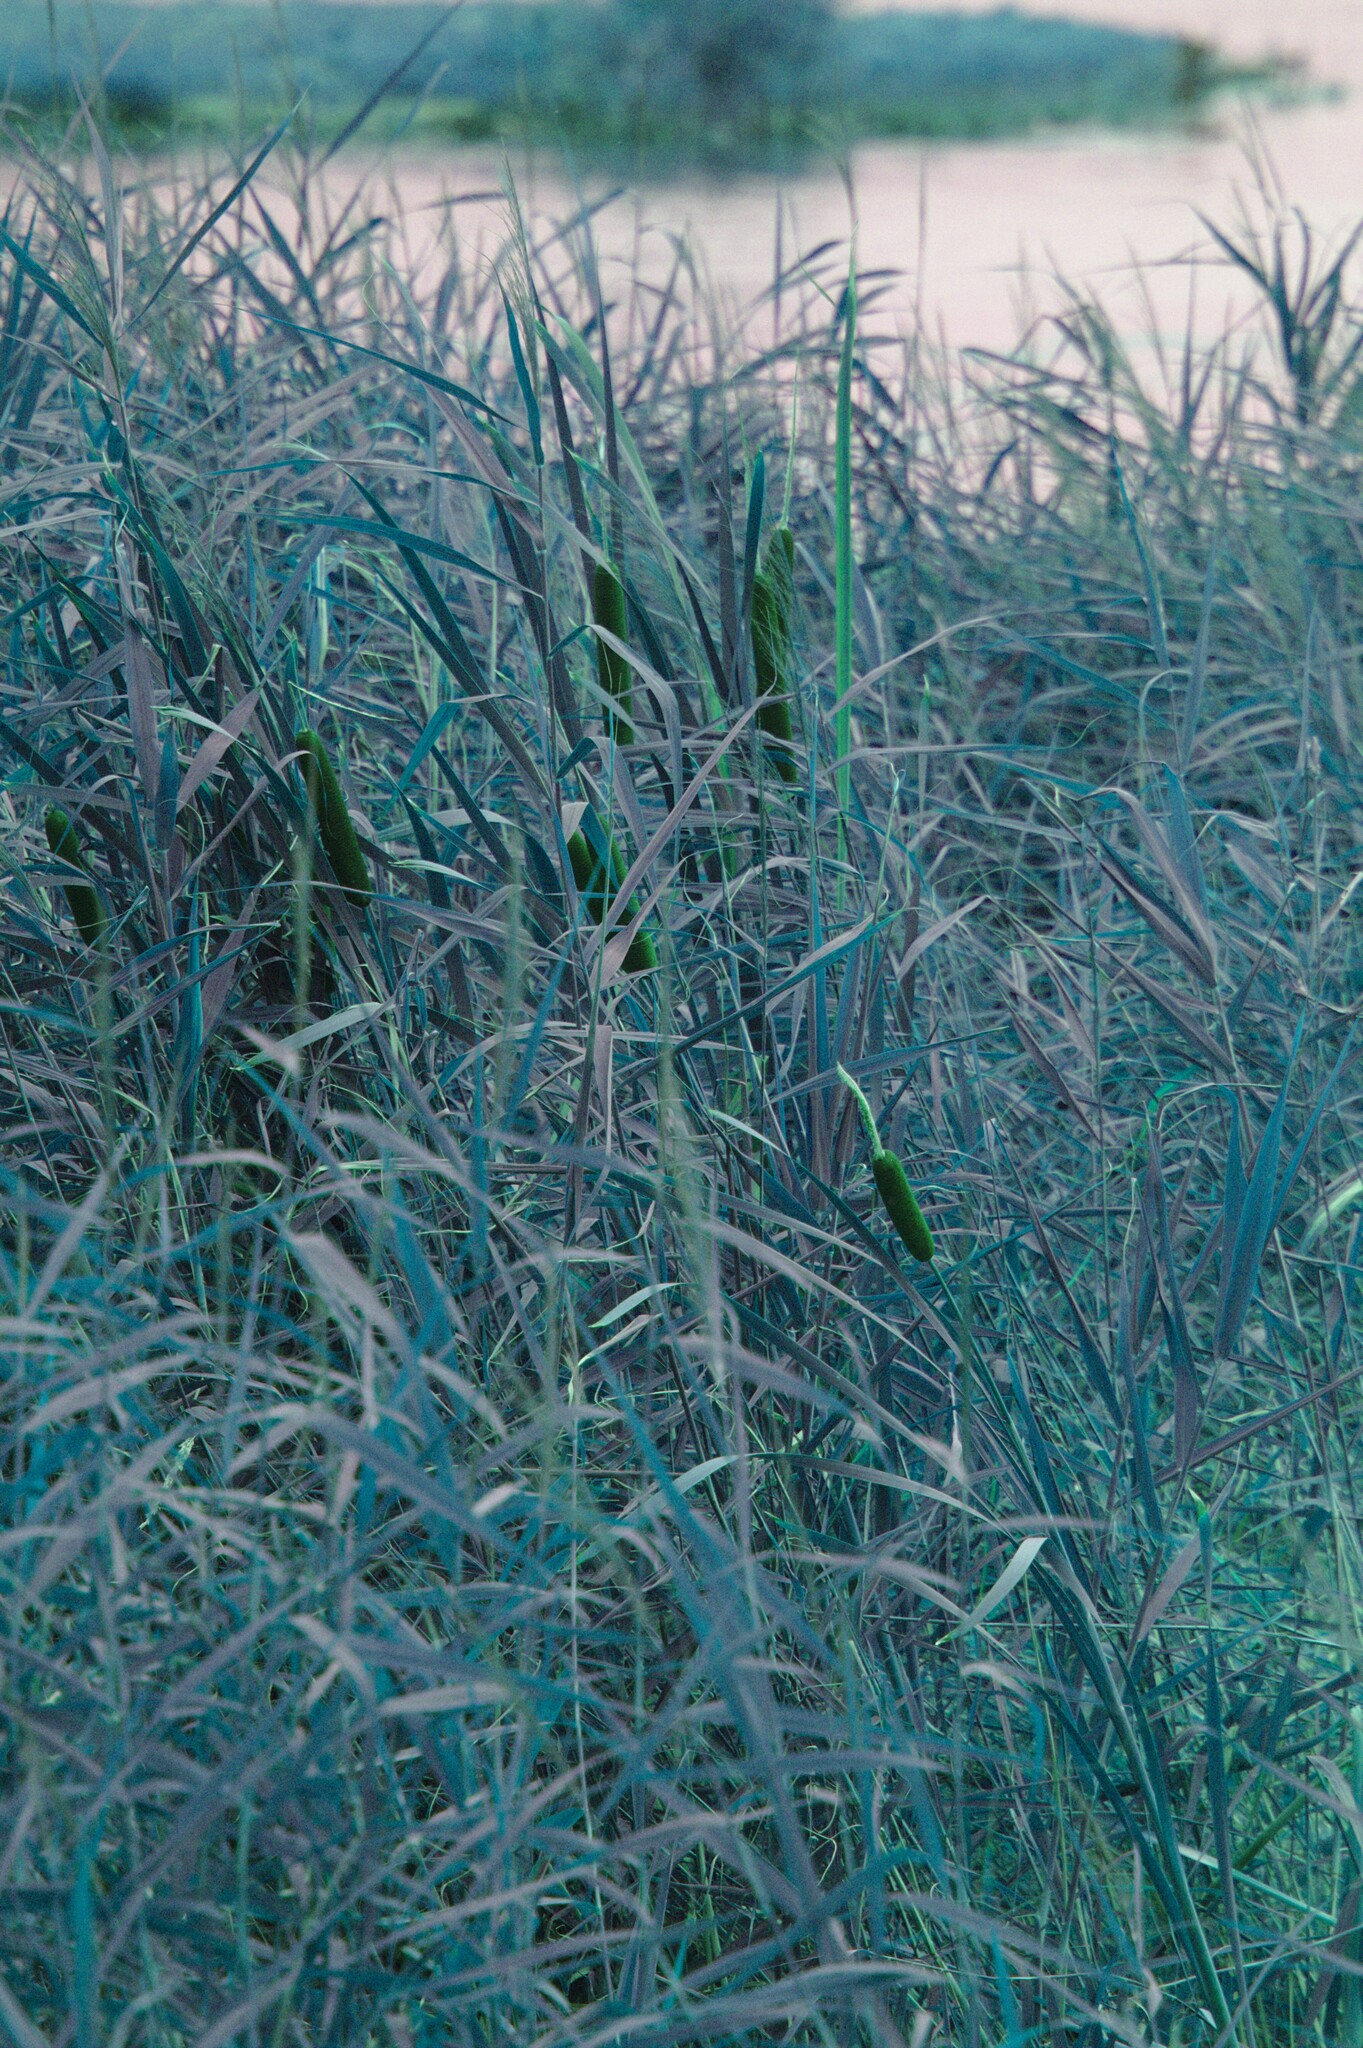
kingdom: Plantae
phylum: Tracheophyta
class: Liliopsida
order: Poales
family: Typhaceae
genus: Typha
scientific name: Typha latifolia
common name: Broadleaf cattail
